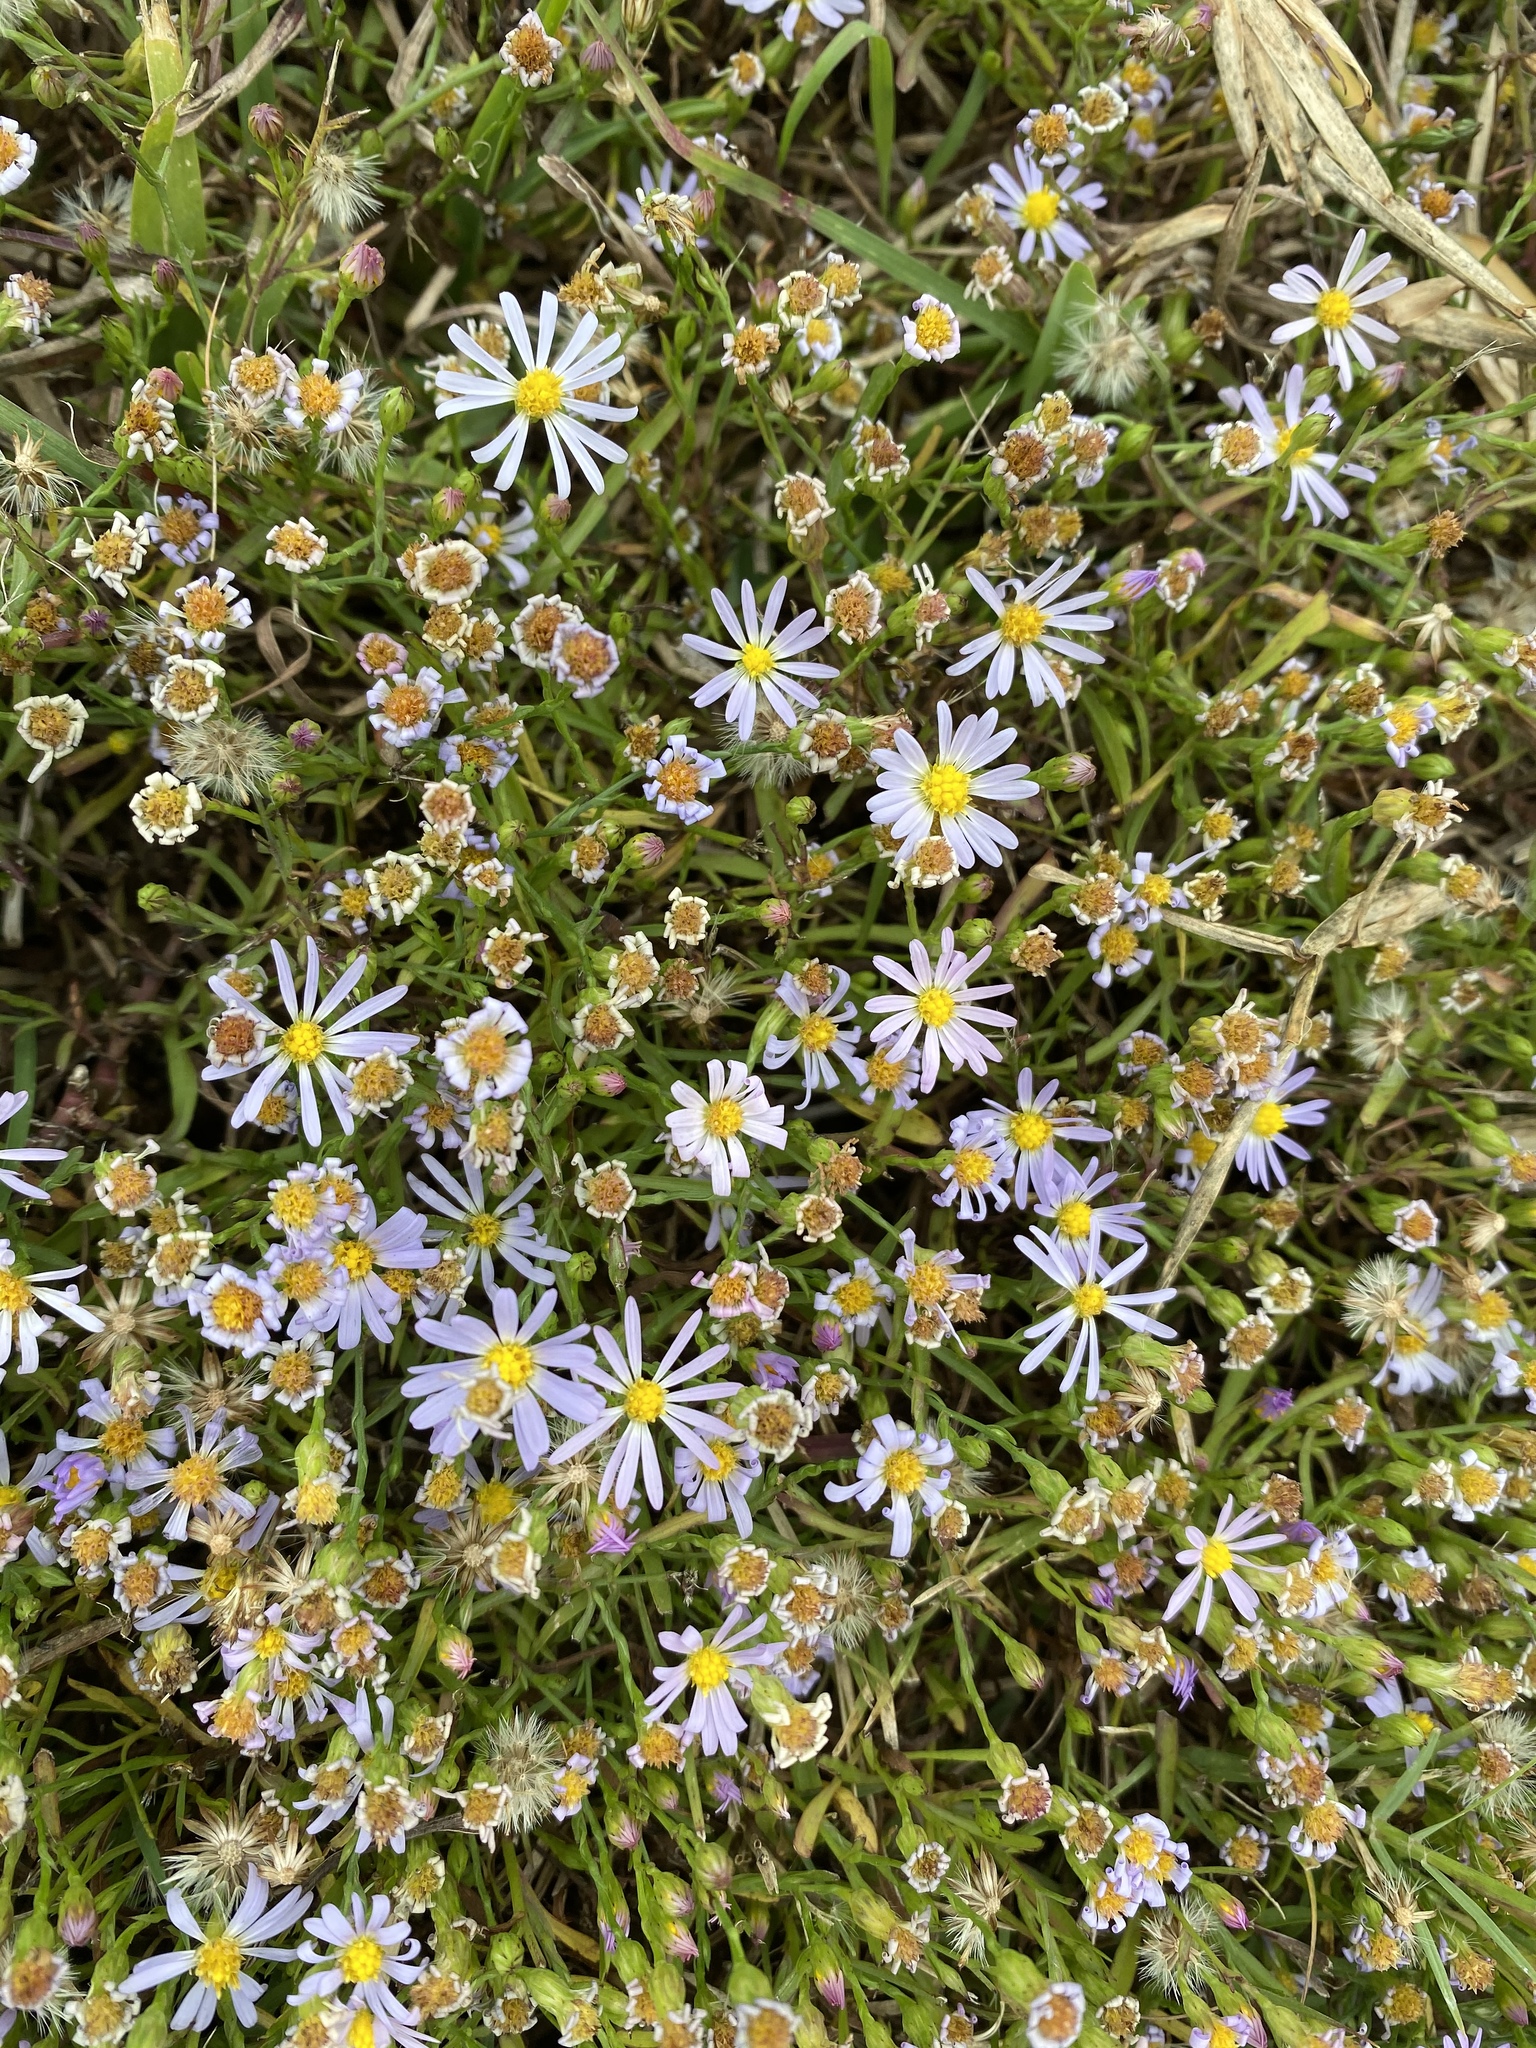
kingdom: Plantae
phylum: Tracheophyta
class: Magnoliopsida
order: Asterales
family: Asteraceae
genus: Symphyotrichum
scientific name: Symphyotrichum divaricatum
